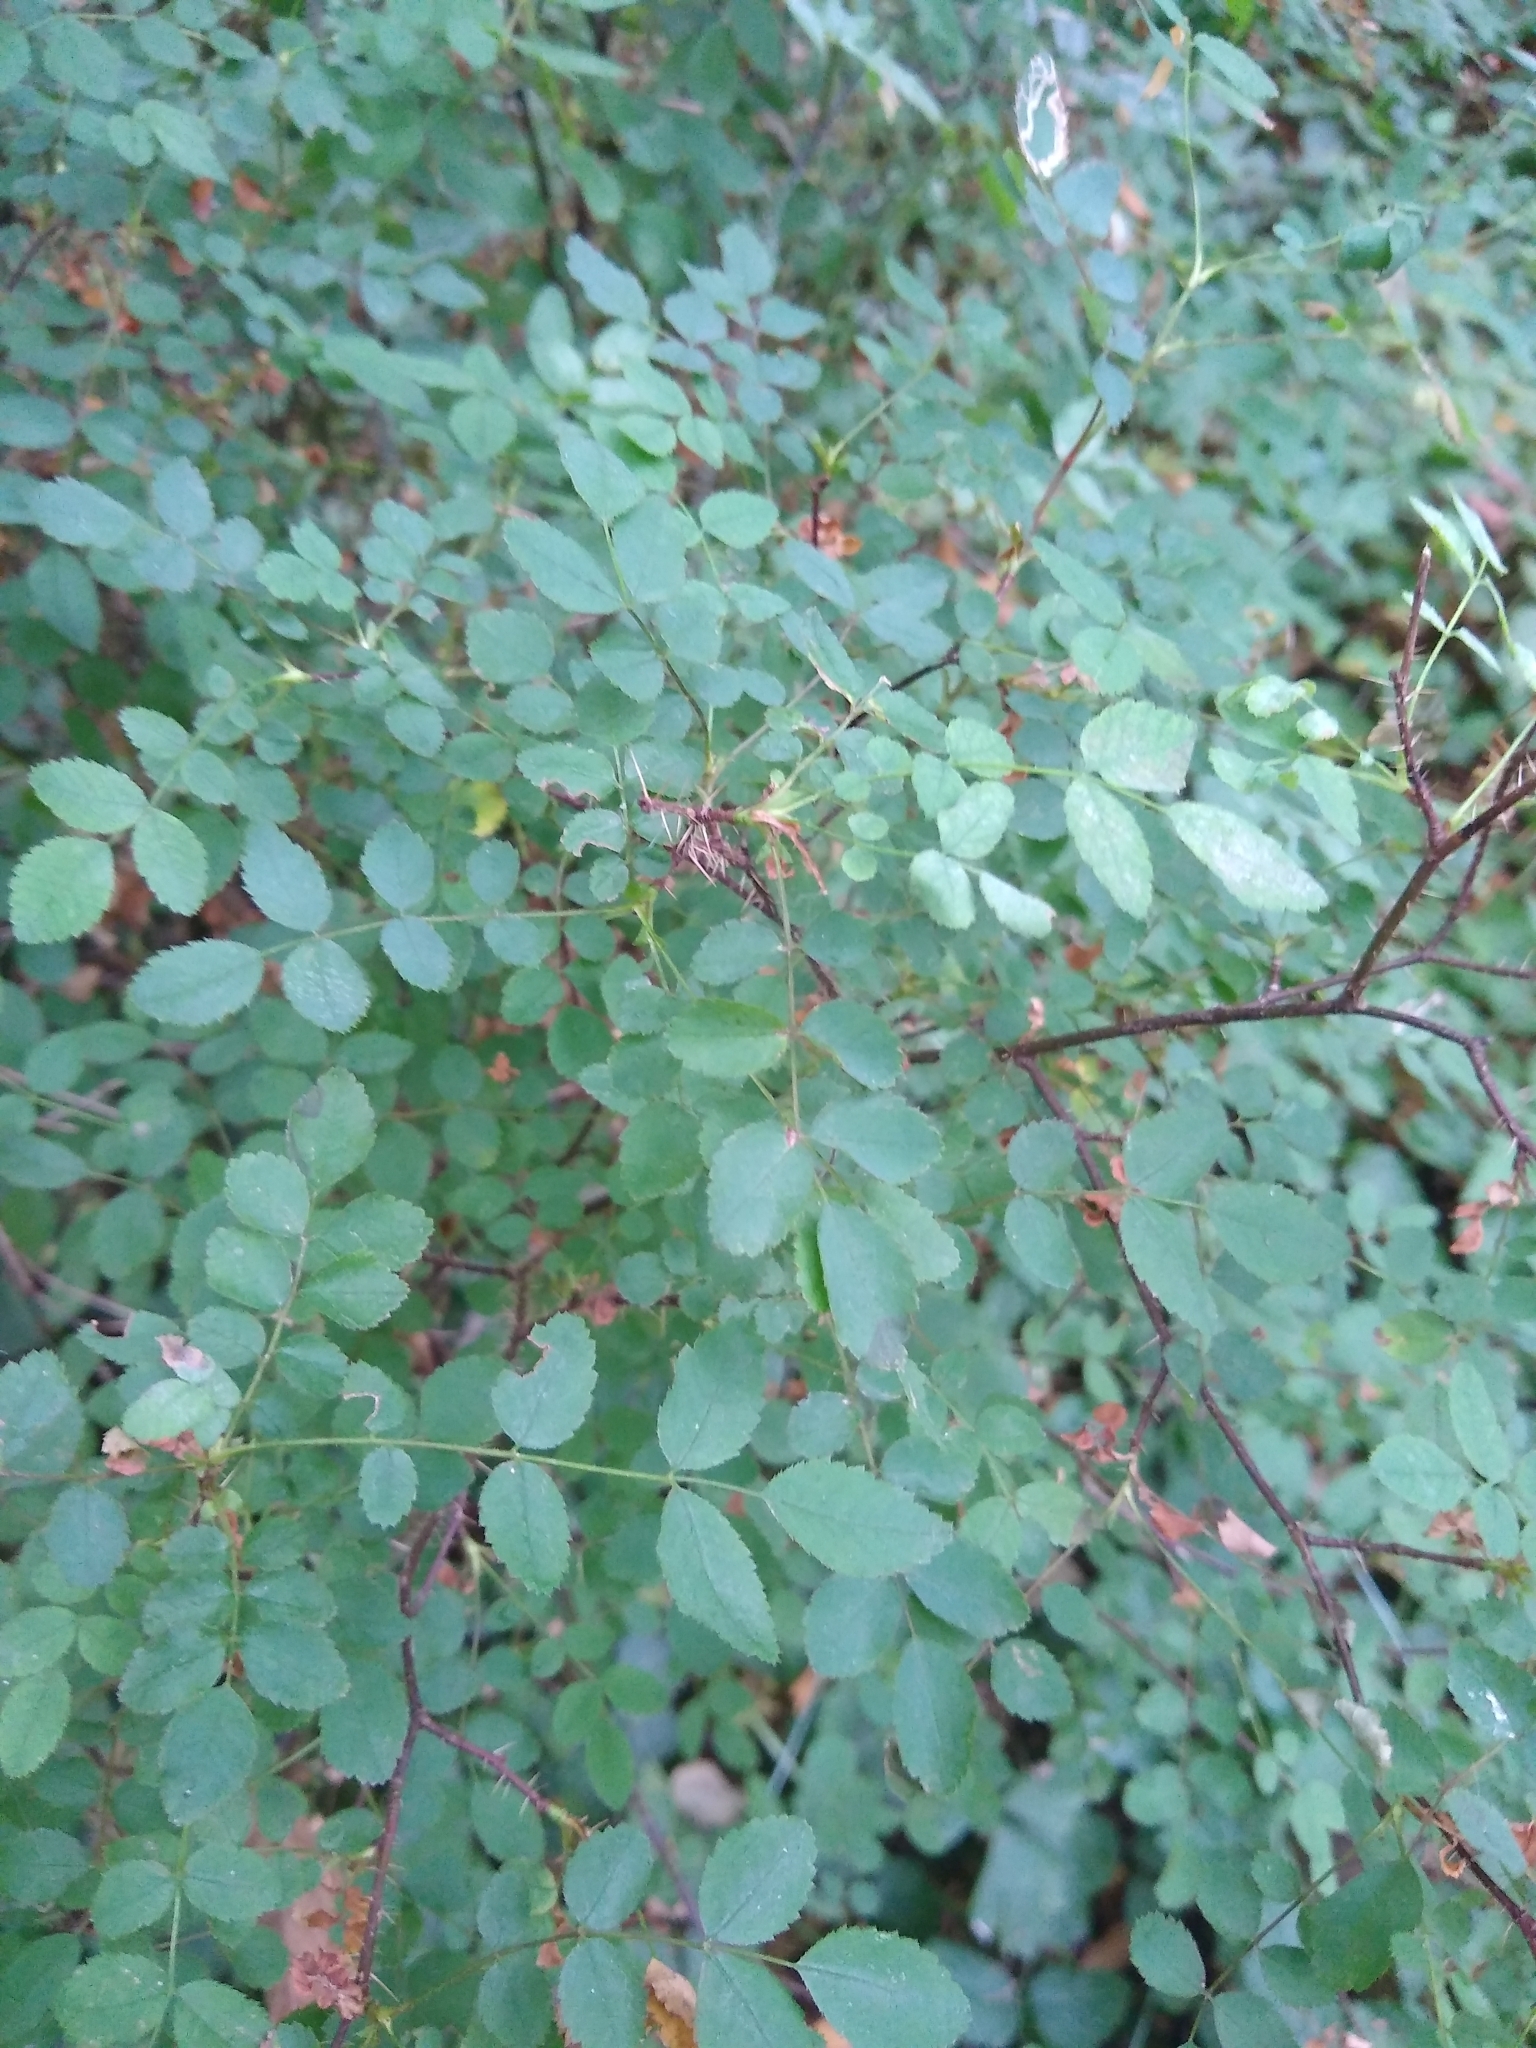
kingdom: Plantae
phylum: Tracheophyta
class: Magnoliopsida
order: Rosales
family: Rosaceae
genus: Rosa
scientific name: Rosa gymnocarpa
